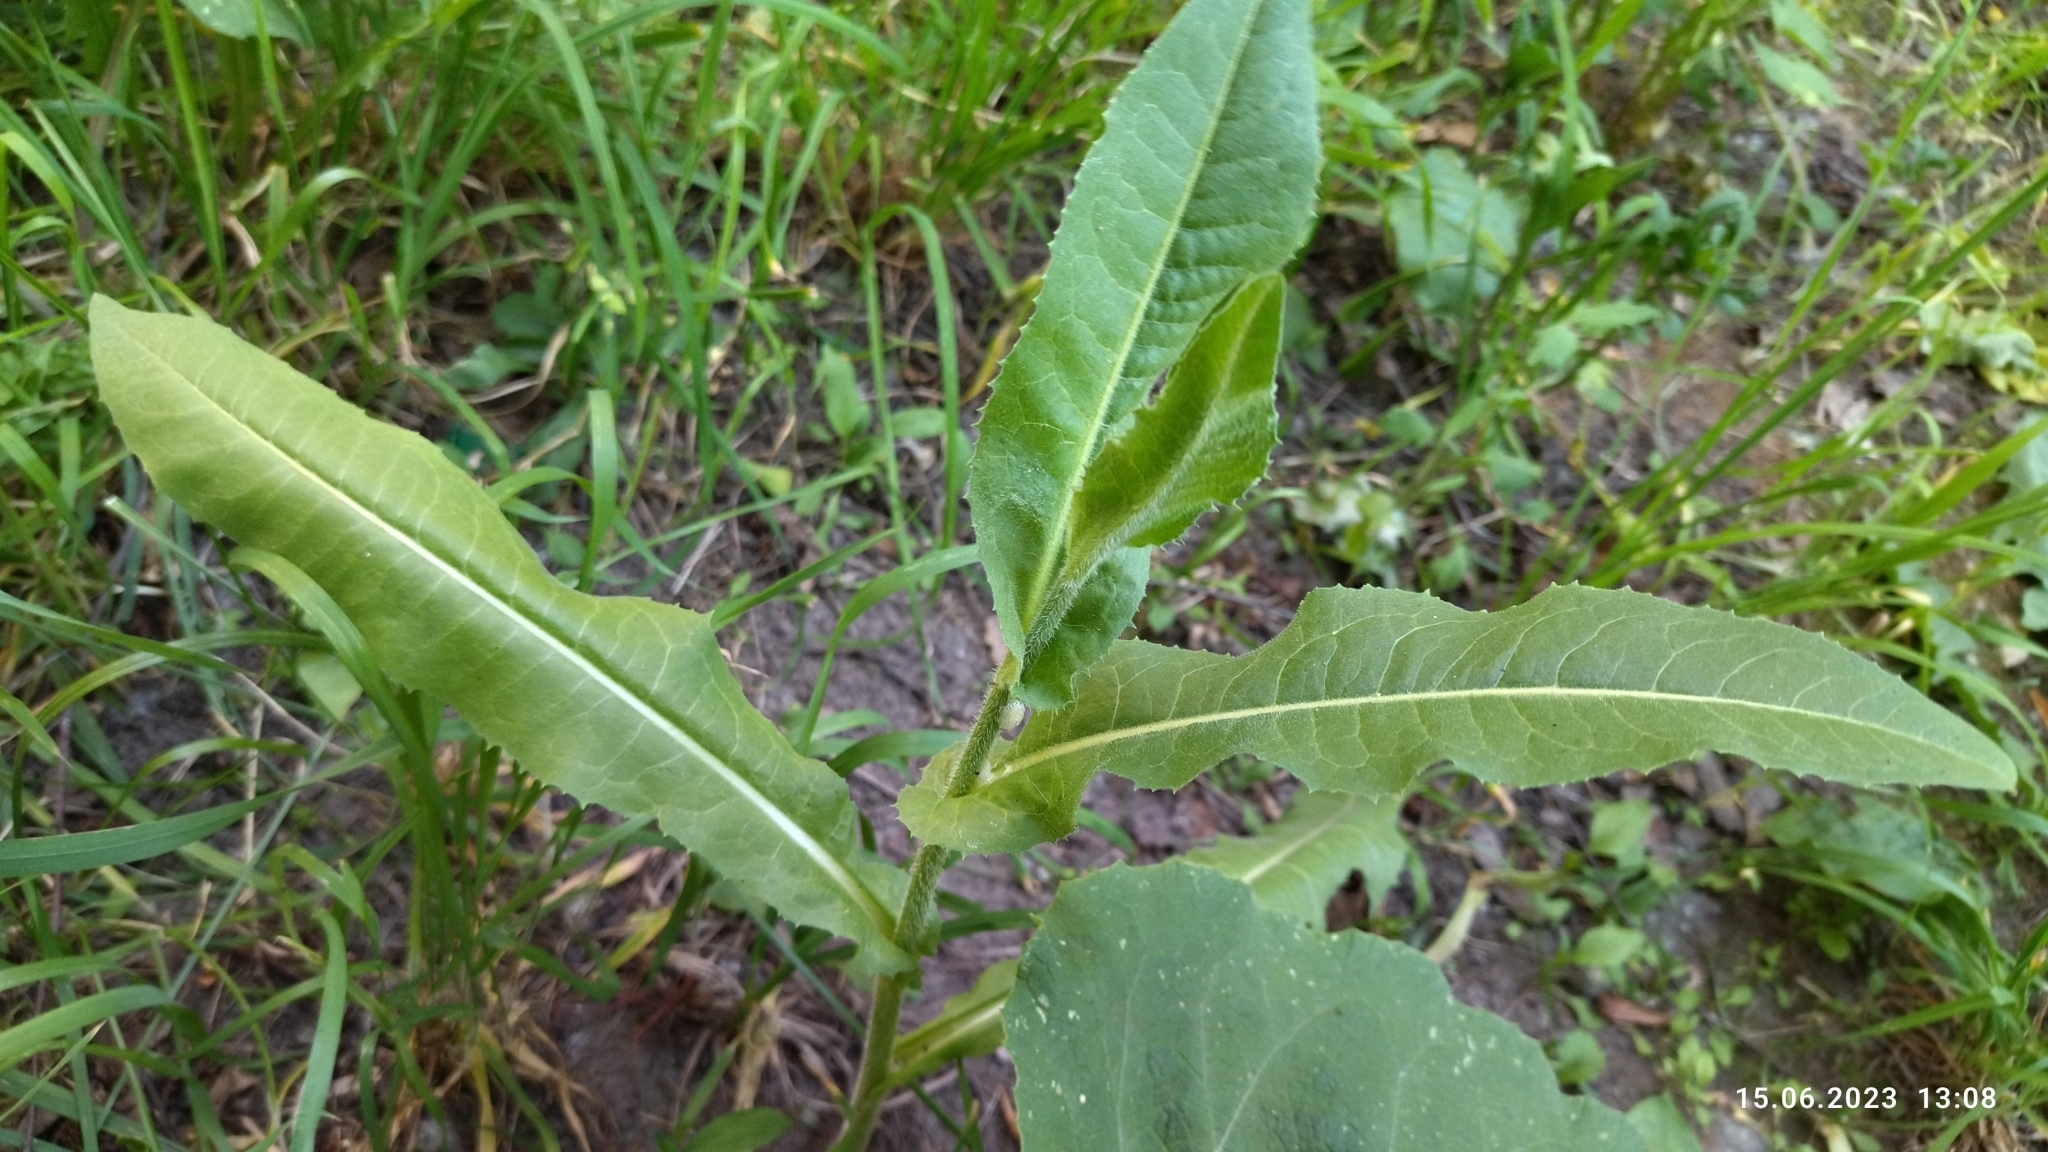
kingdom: Plantae
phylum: Tracheophyta
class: Magnoliopsida
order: Asterales
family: Asteraceae
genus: Cichorium
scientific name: Cichorium intybus
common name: Chicory
